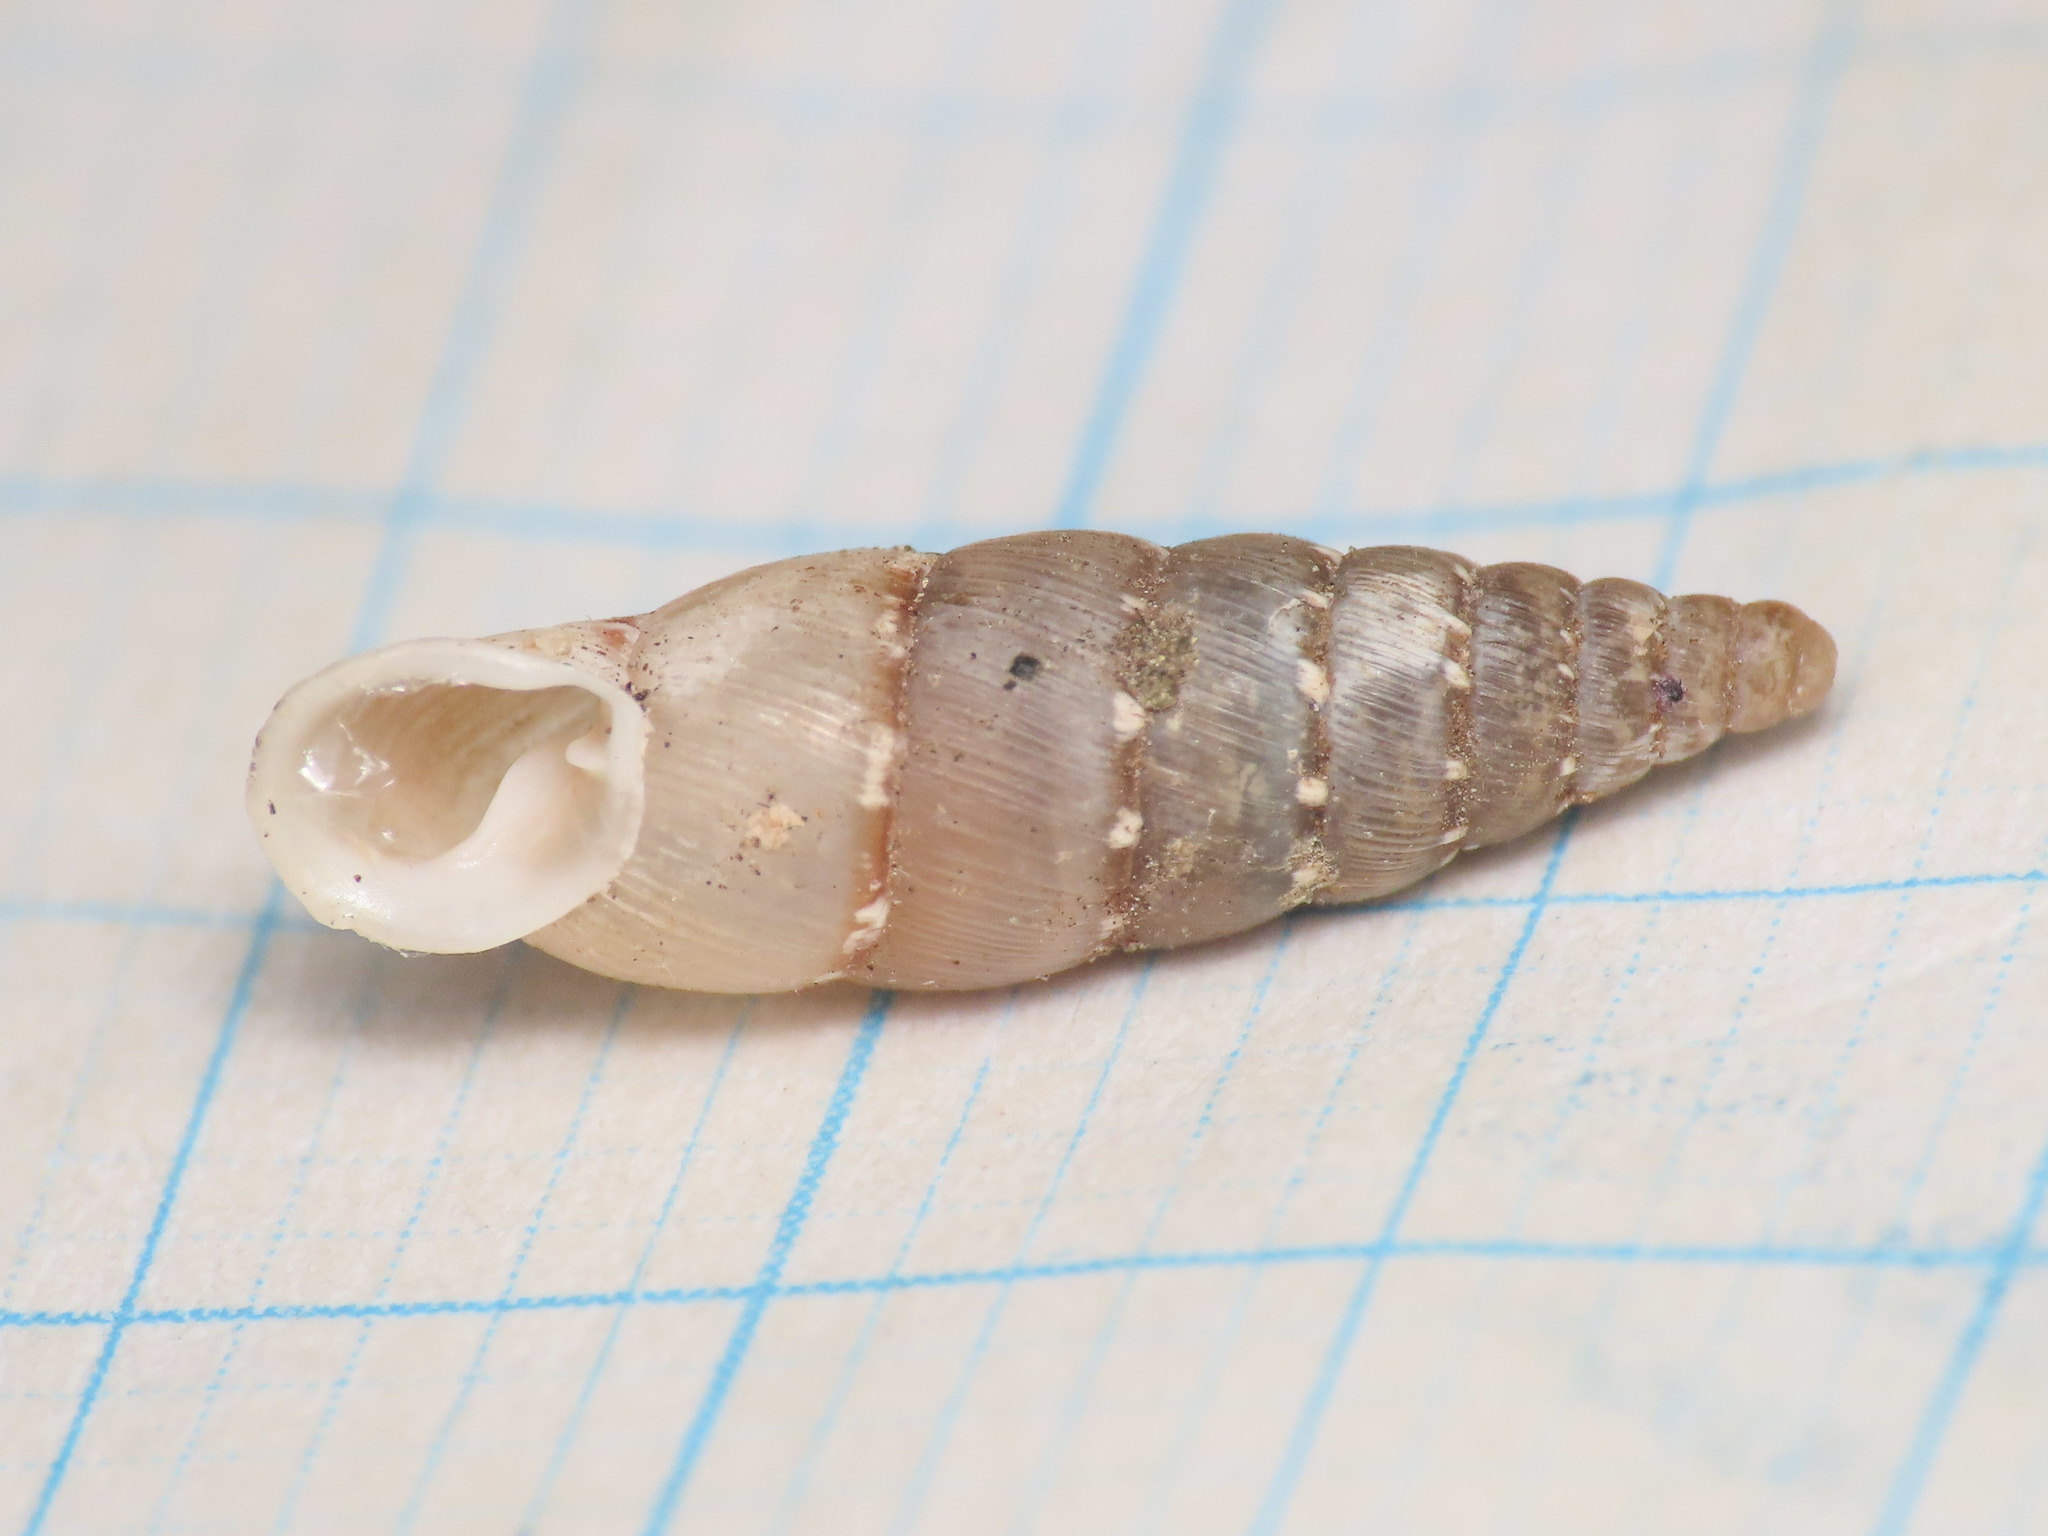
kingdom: Animalia
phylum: Mollusca
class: Gastropoda
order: Stylommatophora
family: Clausiliidae
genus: Papillifera
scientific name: Papillifera papillaris
